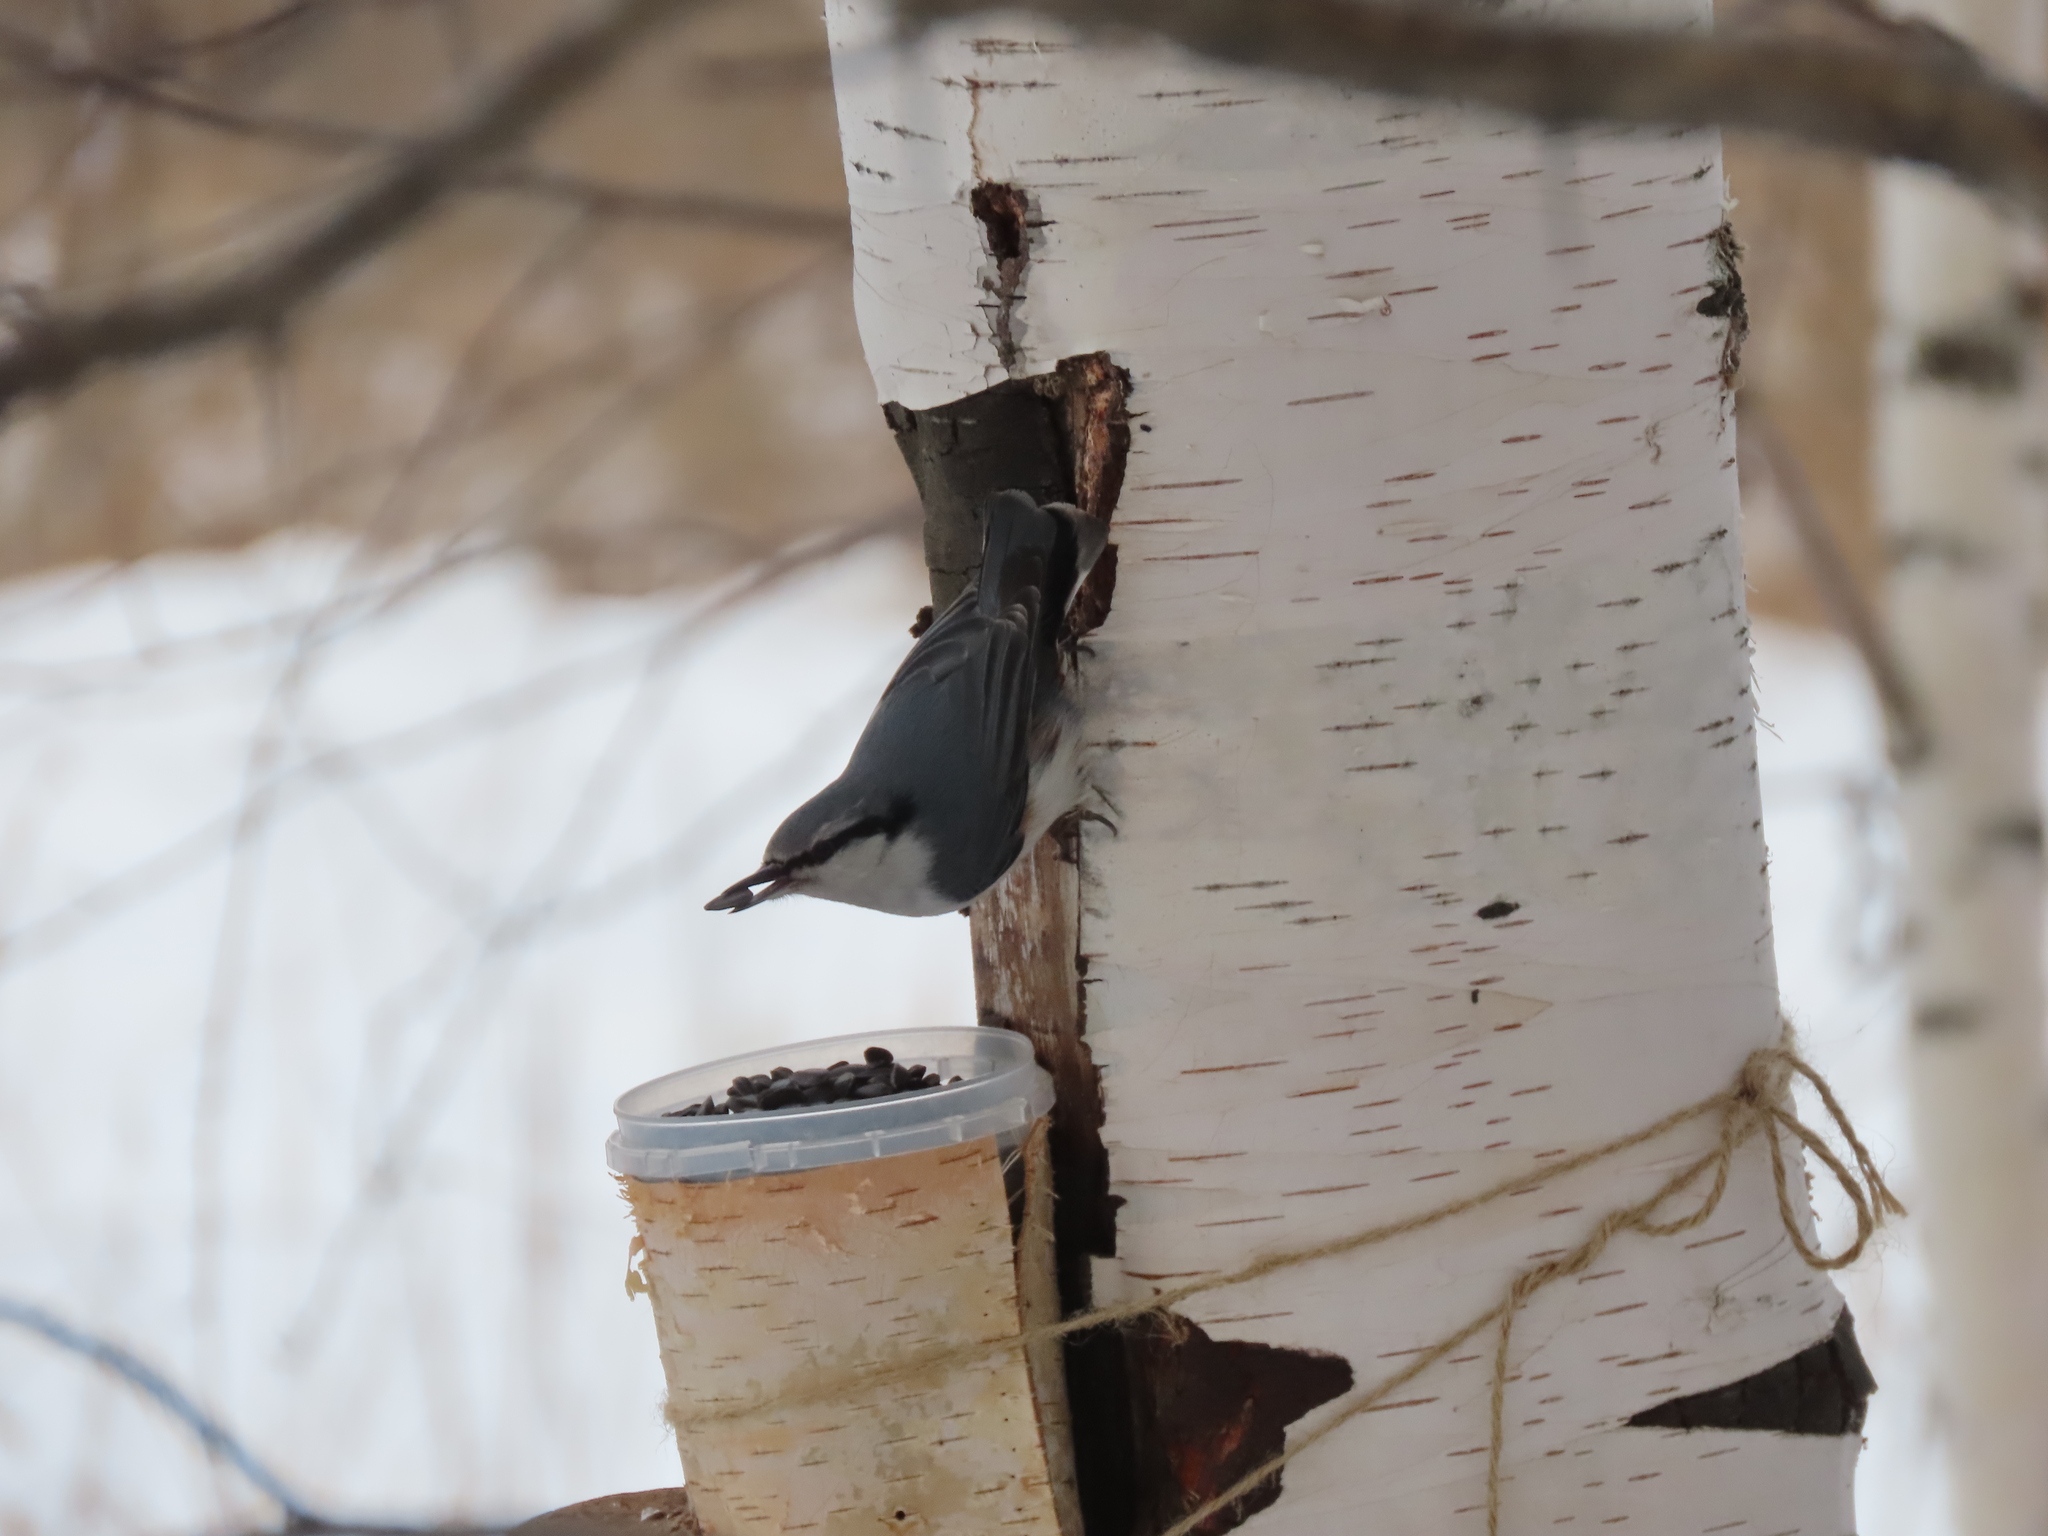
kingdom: Animalia
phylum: Chordata
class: Aves
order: Passeriformes
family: Sittidae
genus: Sitta
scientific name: Sitta europaea
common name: Eurasian nuthatch
